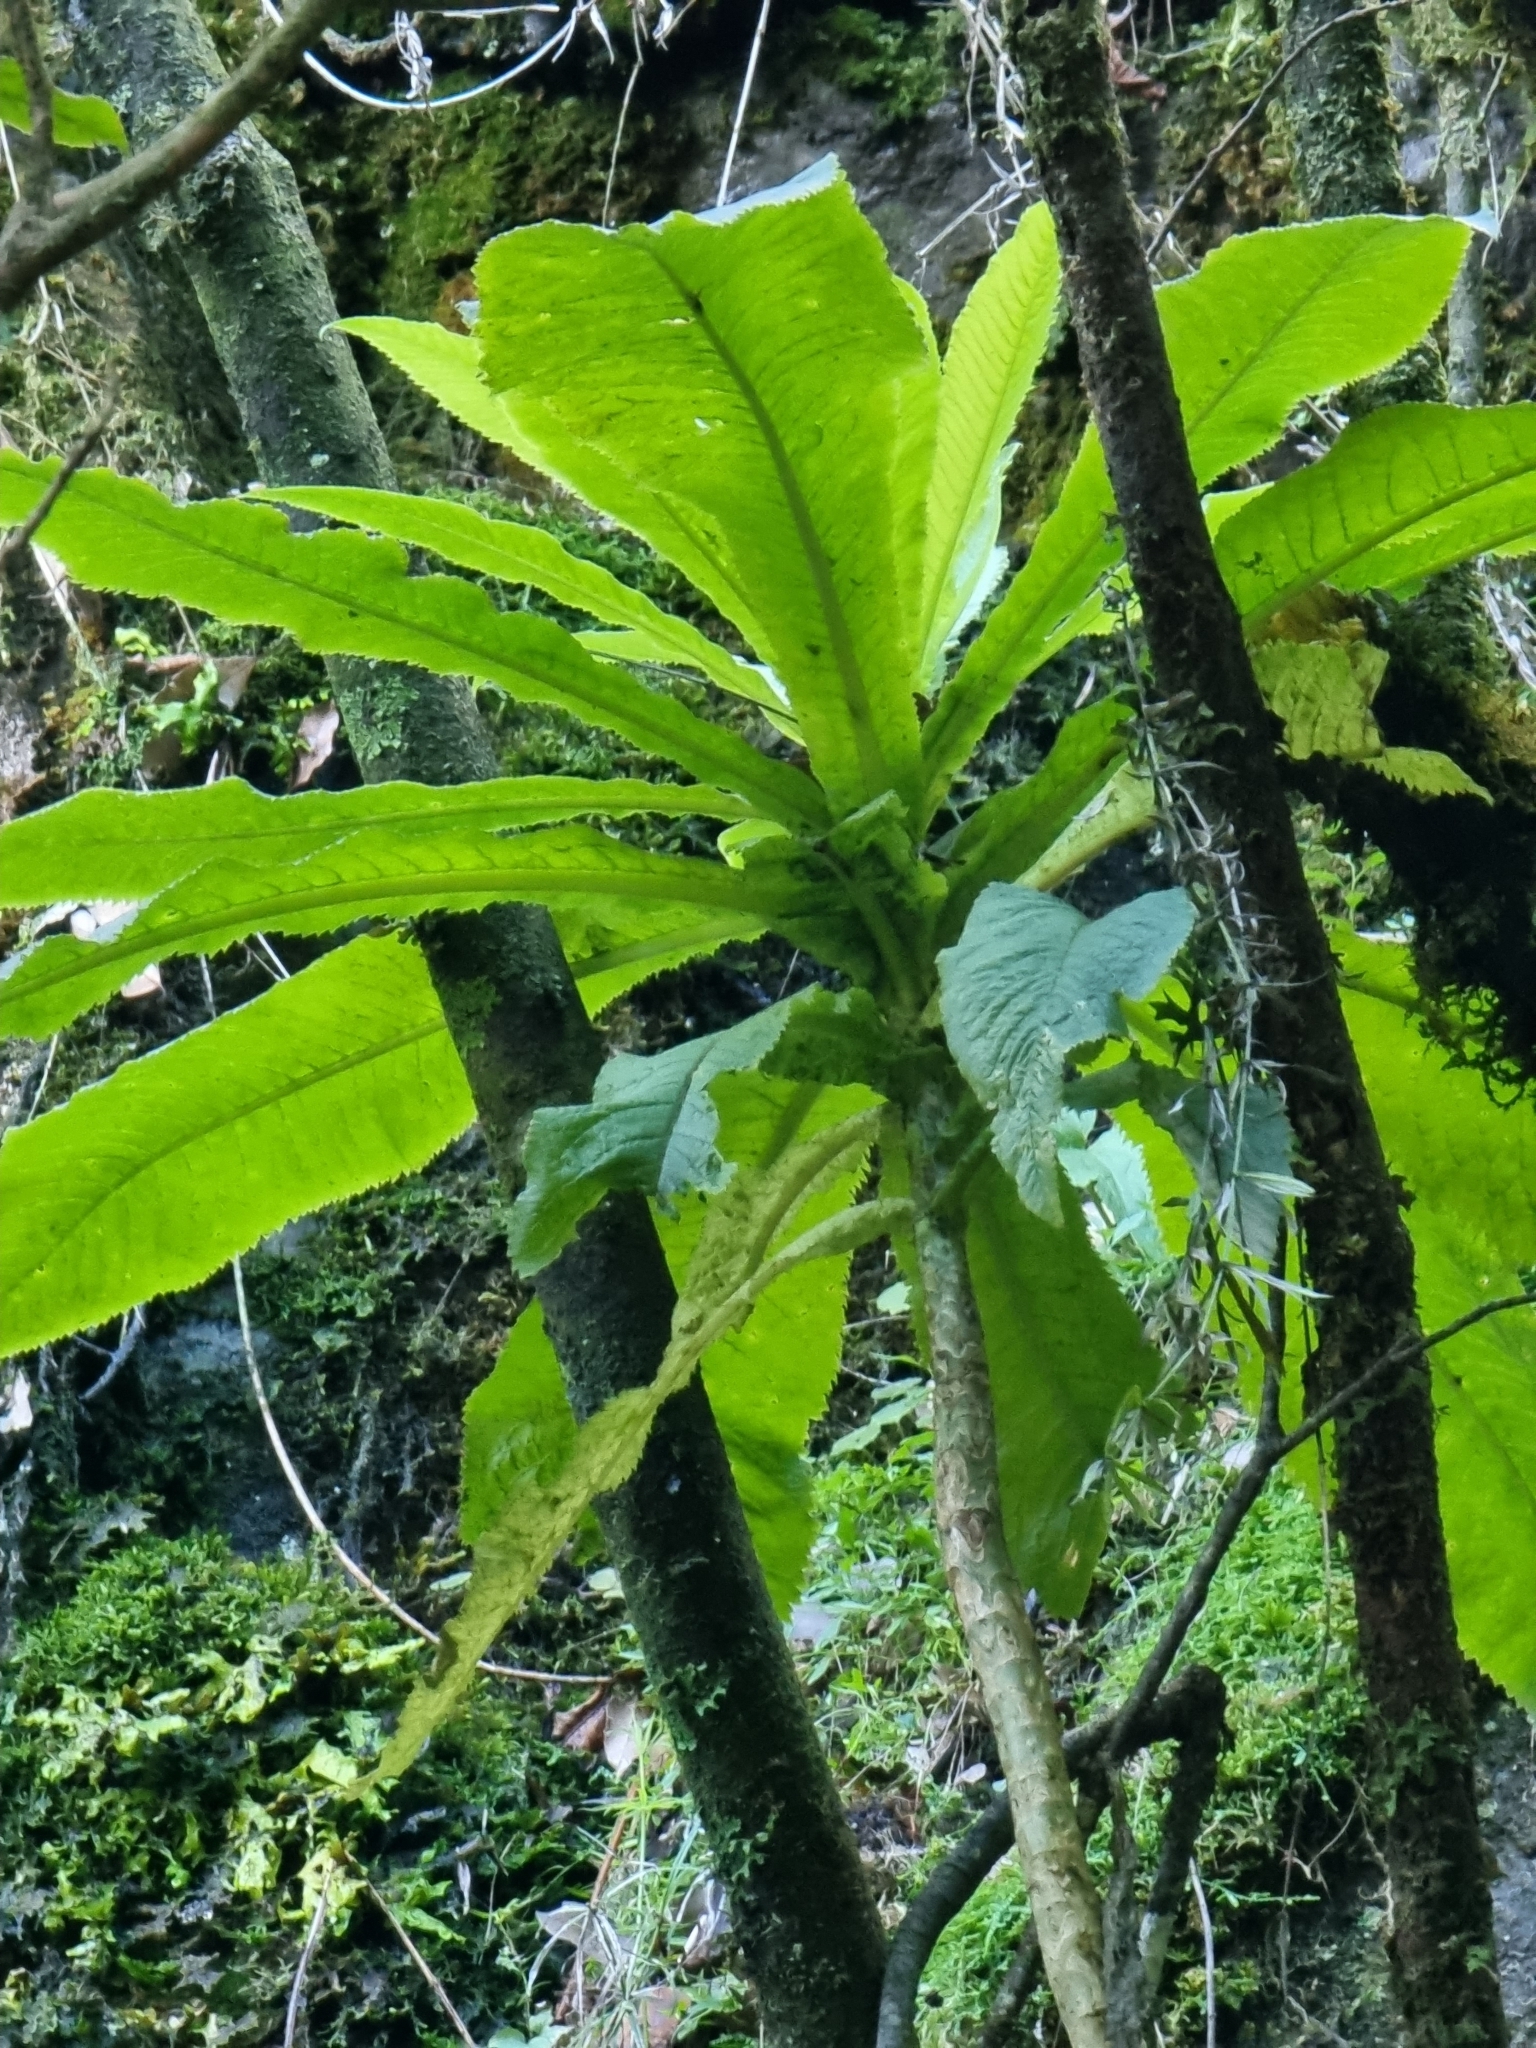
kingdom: Plantae
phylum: Tracheophyta
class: Magnoliopsida
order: Asterales
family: Campanulaceae
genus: Musschia
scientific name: Musschia wollastonii
